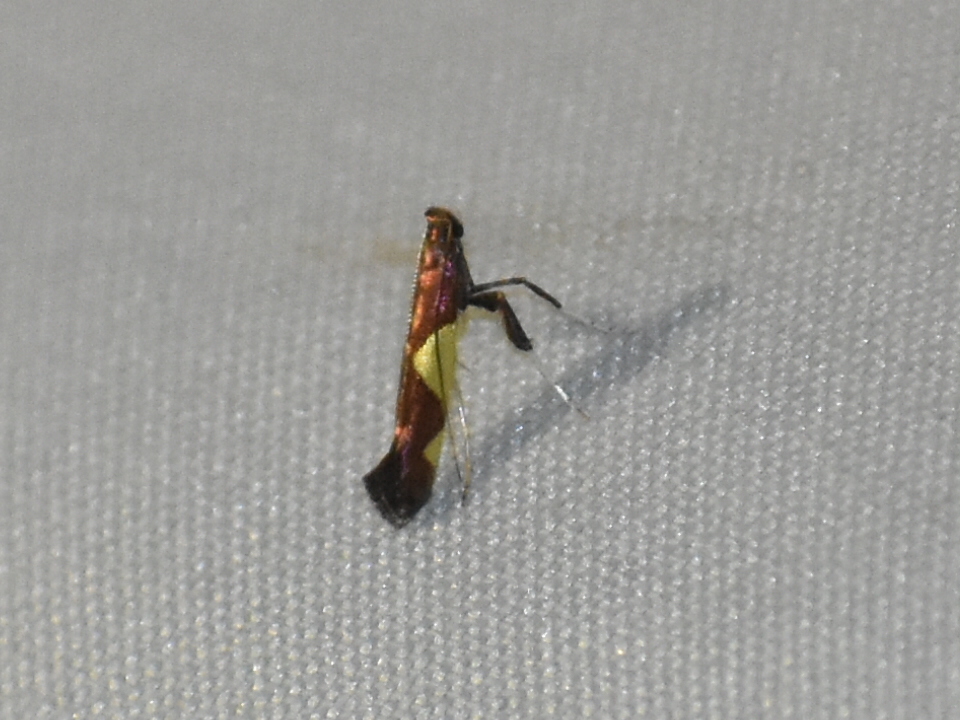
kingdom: Animalia
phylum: Arthropoda
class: Insecta
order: Lepidoptera
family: Gracillariidae
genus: Caloptilia
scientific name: Caloptilia bimaculatella
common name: Maple caloptilia moth
